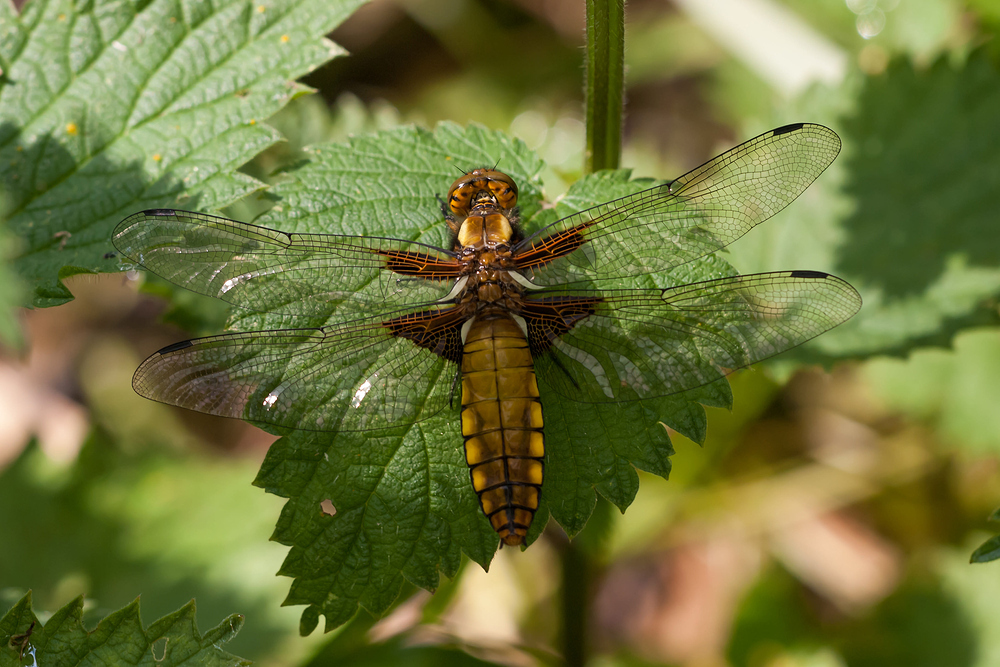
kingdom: Animalia
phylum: Arthropoda
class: Insecta
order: Odonata
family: Libellulidae
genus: Libellula
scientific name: Libellula depressa
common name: Broad-bodied chaser
